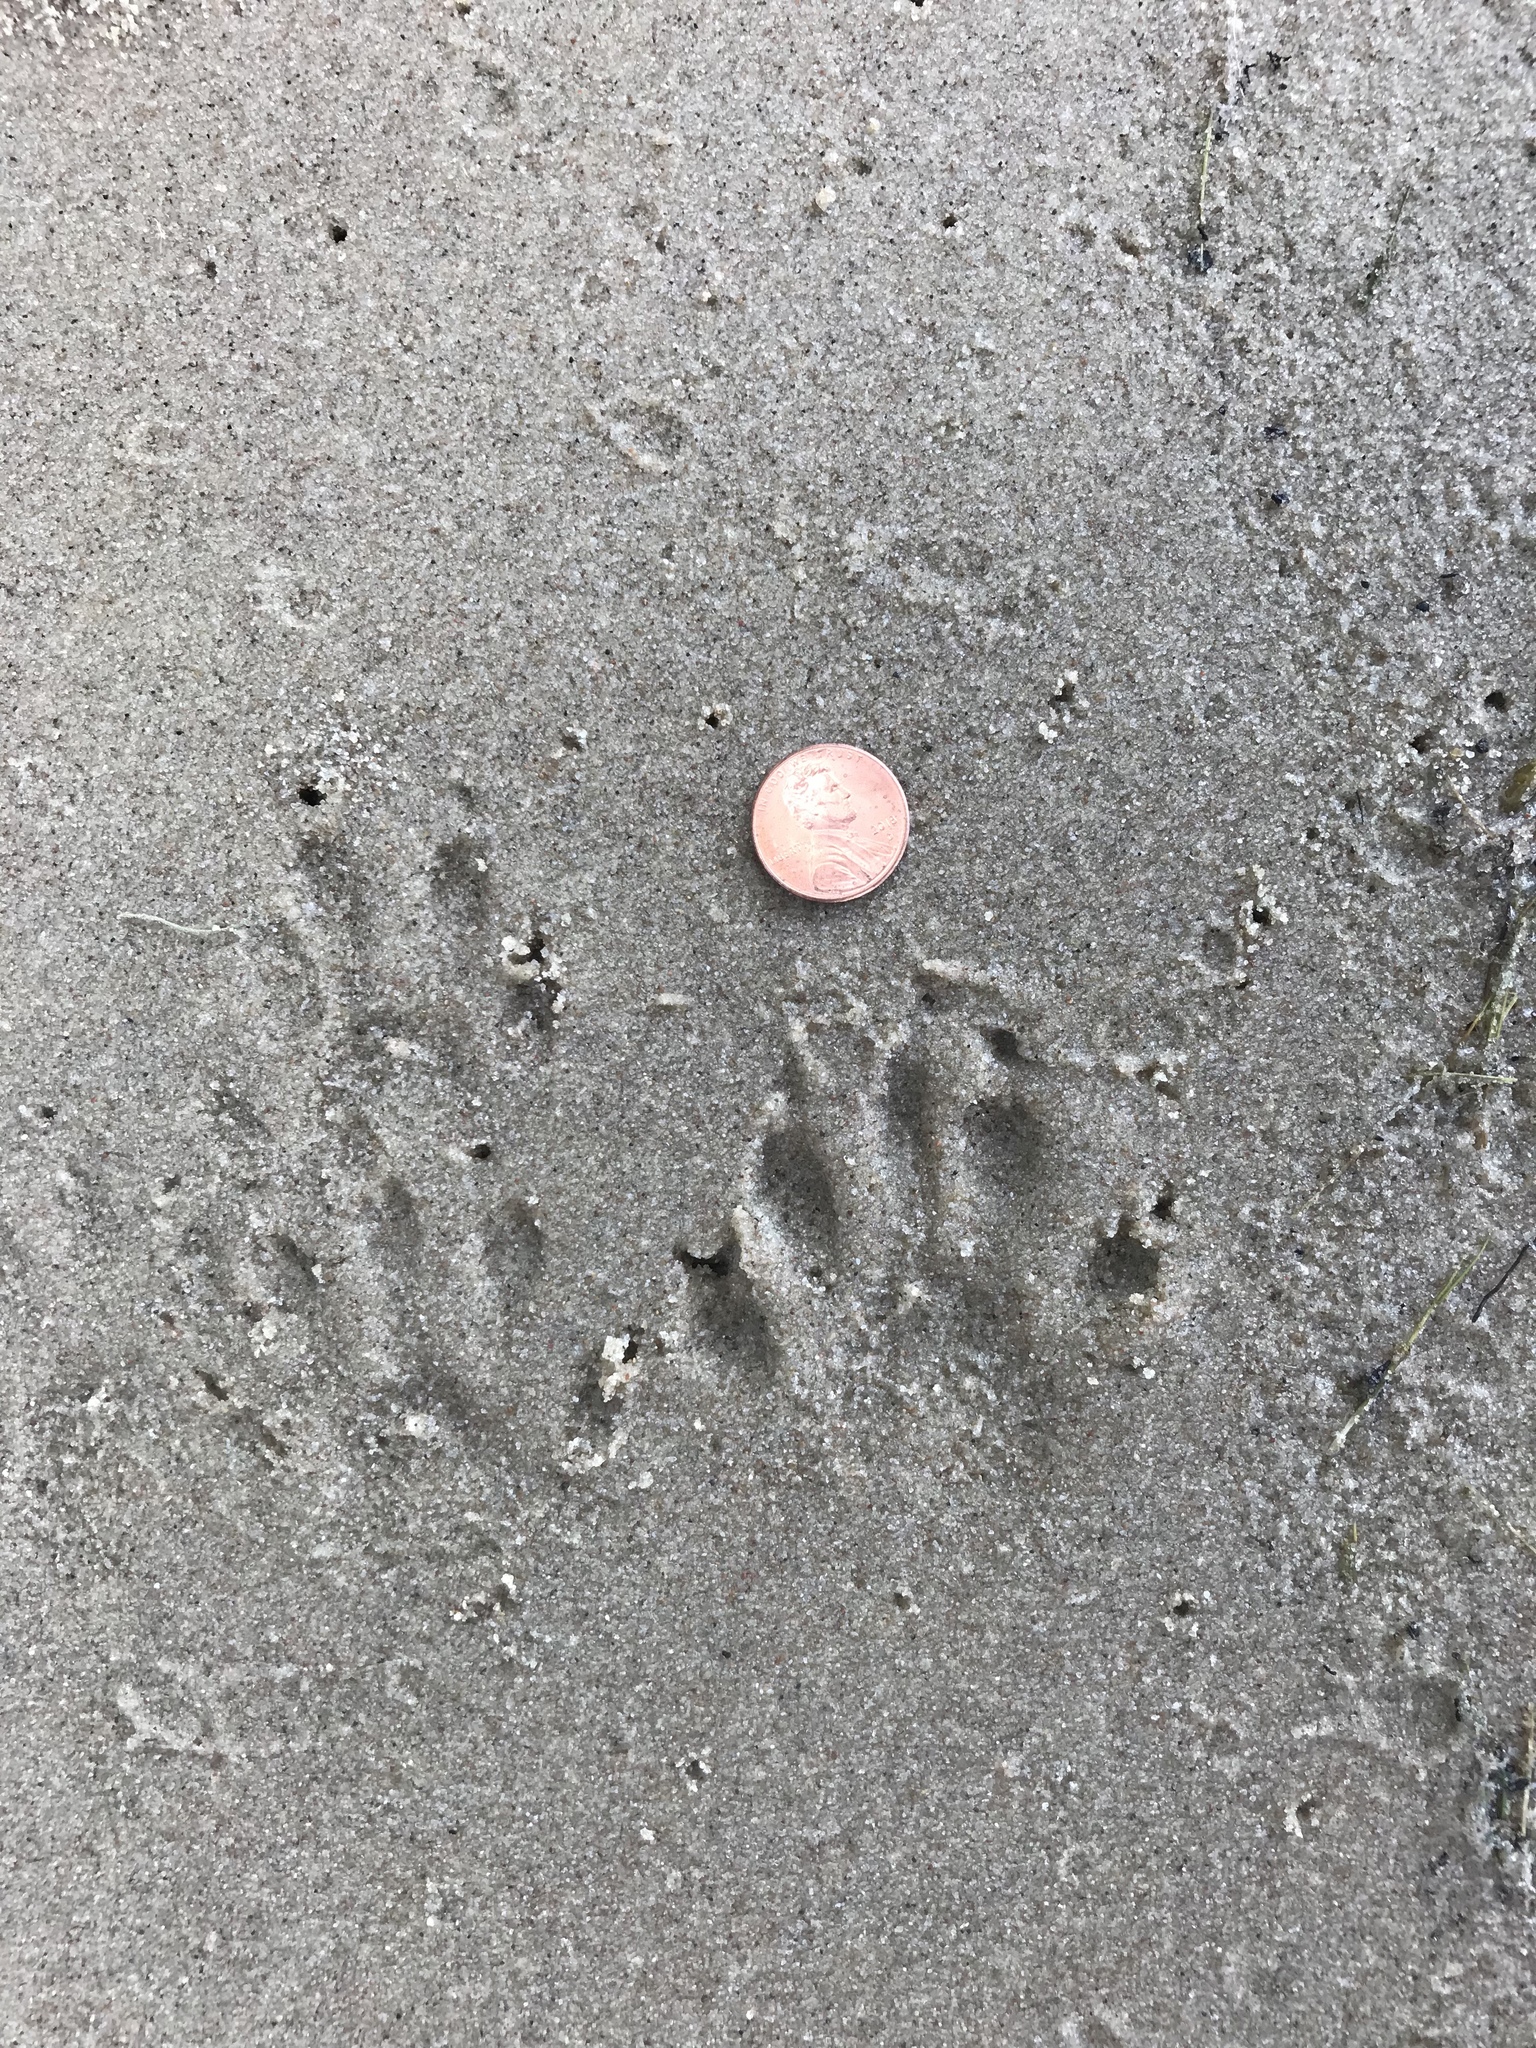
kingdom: Animalia
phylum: Chordata
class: Mammalia
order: Carnivora
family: Procyonidae
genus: Procyon
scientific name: Procyon lotor
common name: Raccoon
